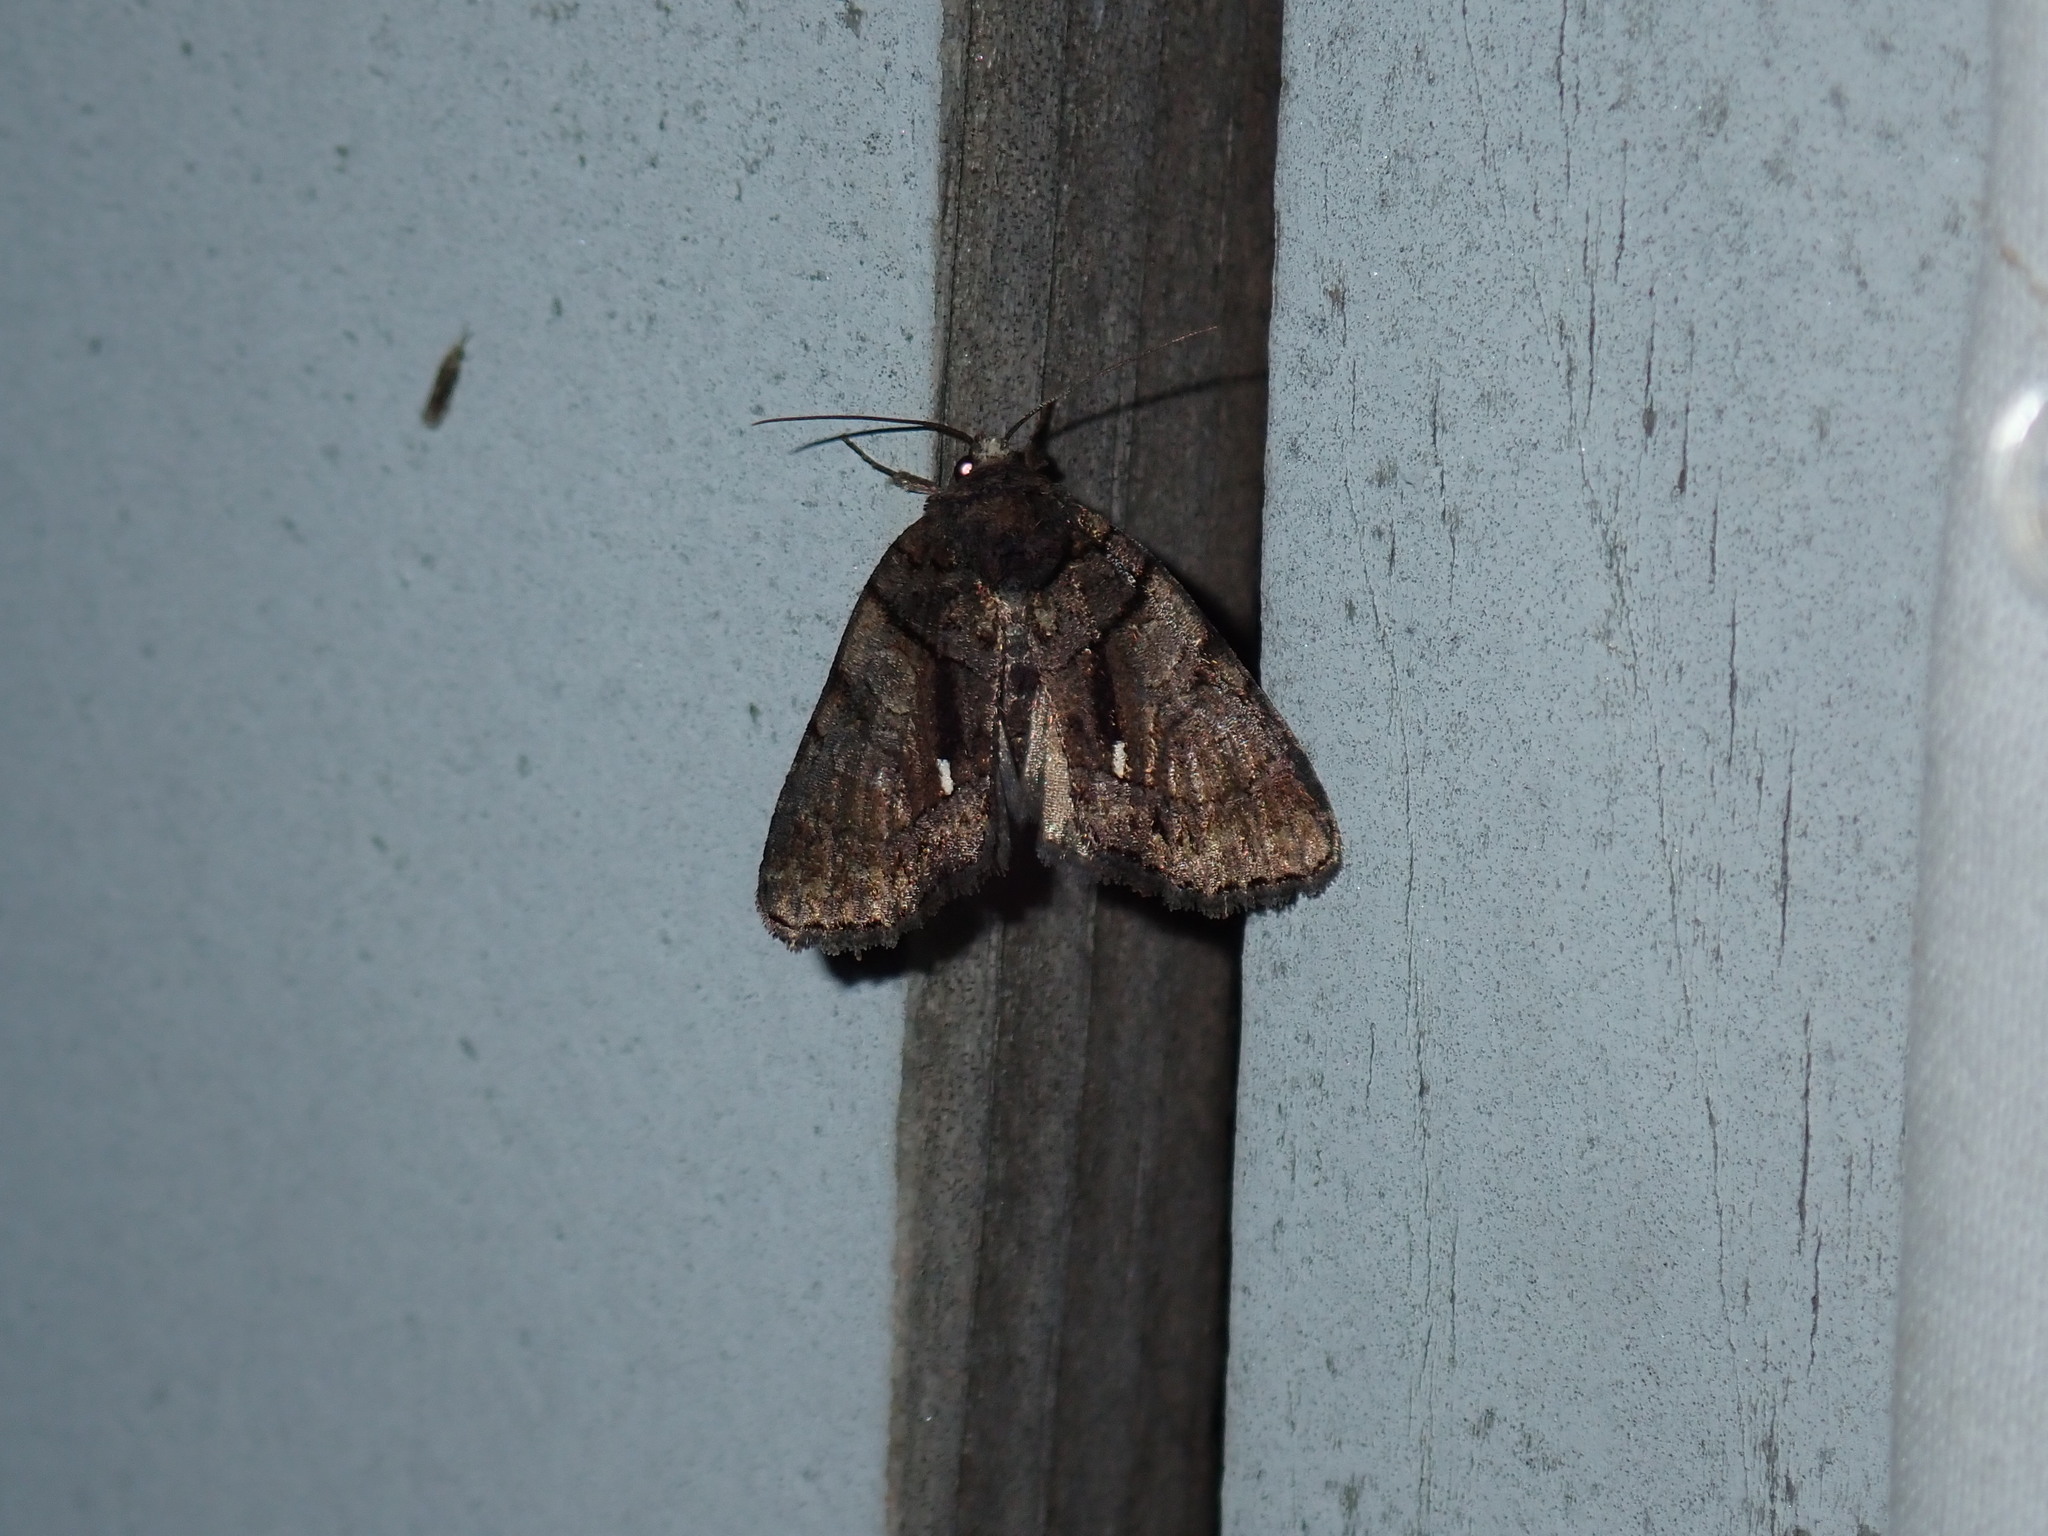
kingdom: Animalia
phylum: Arthropoda
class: Insecta
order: Lepidoptera
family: Noctuidae
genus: Chytonix
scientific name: Chytonix palliatricula
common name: Cloaked marvel
